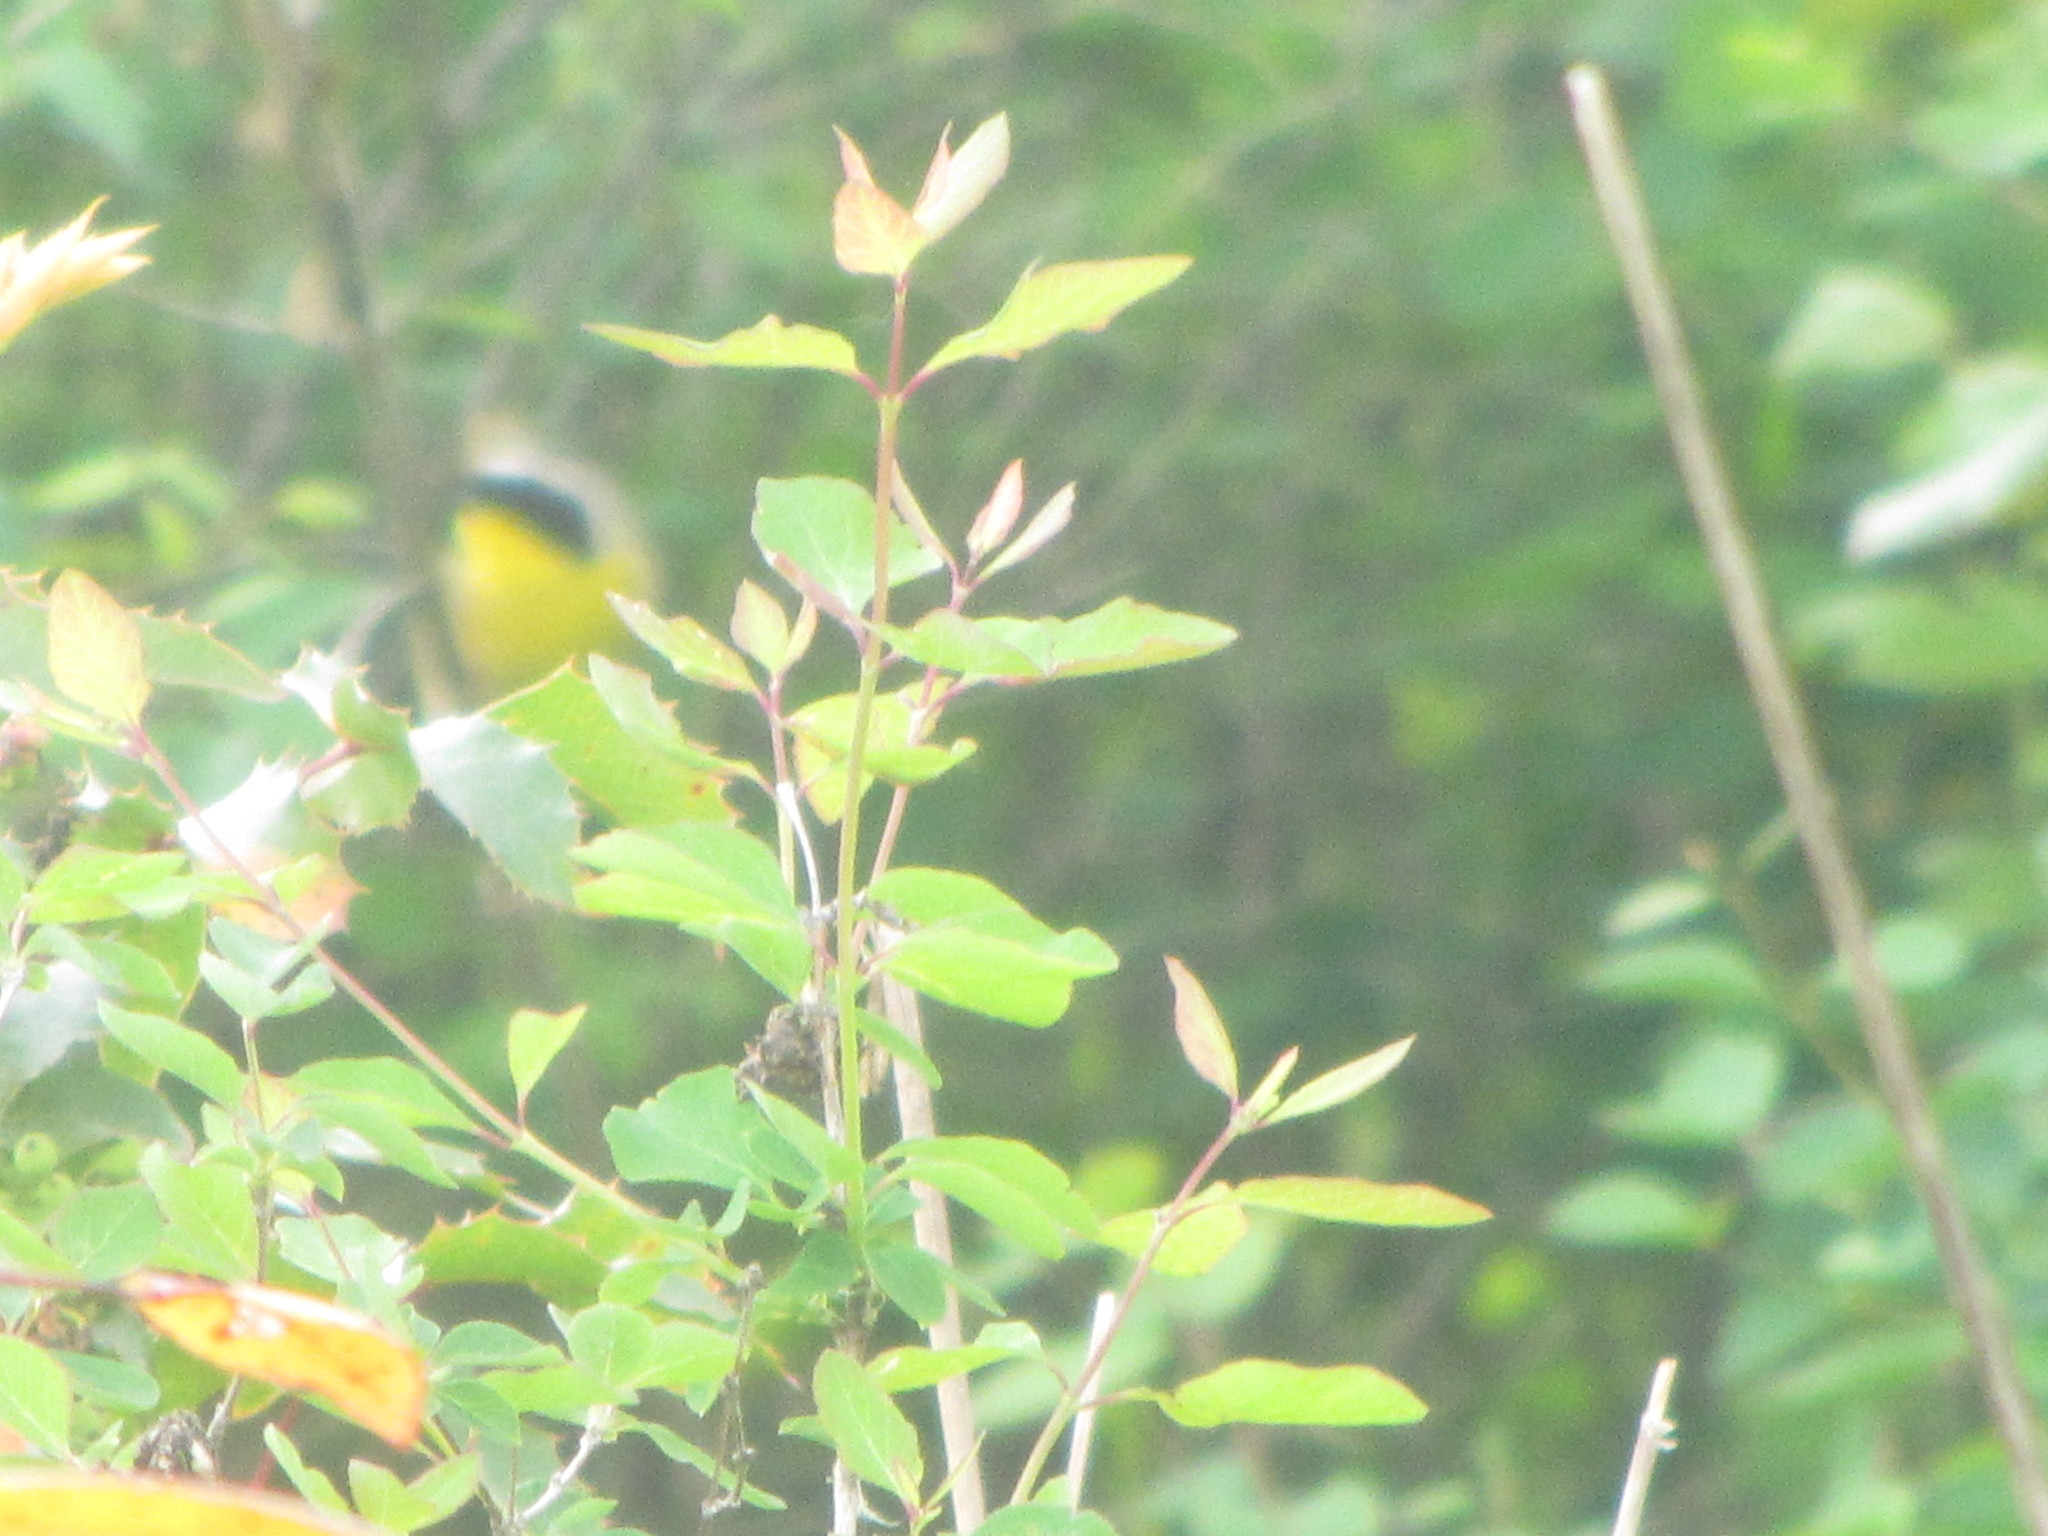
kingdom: Animalia
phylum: Chordata
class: Aves
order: Passeriformes
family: Parulidae
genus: Geothlypis
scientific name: Geothlypis trichas
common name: Common yellowthroat
